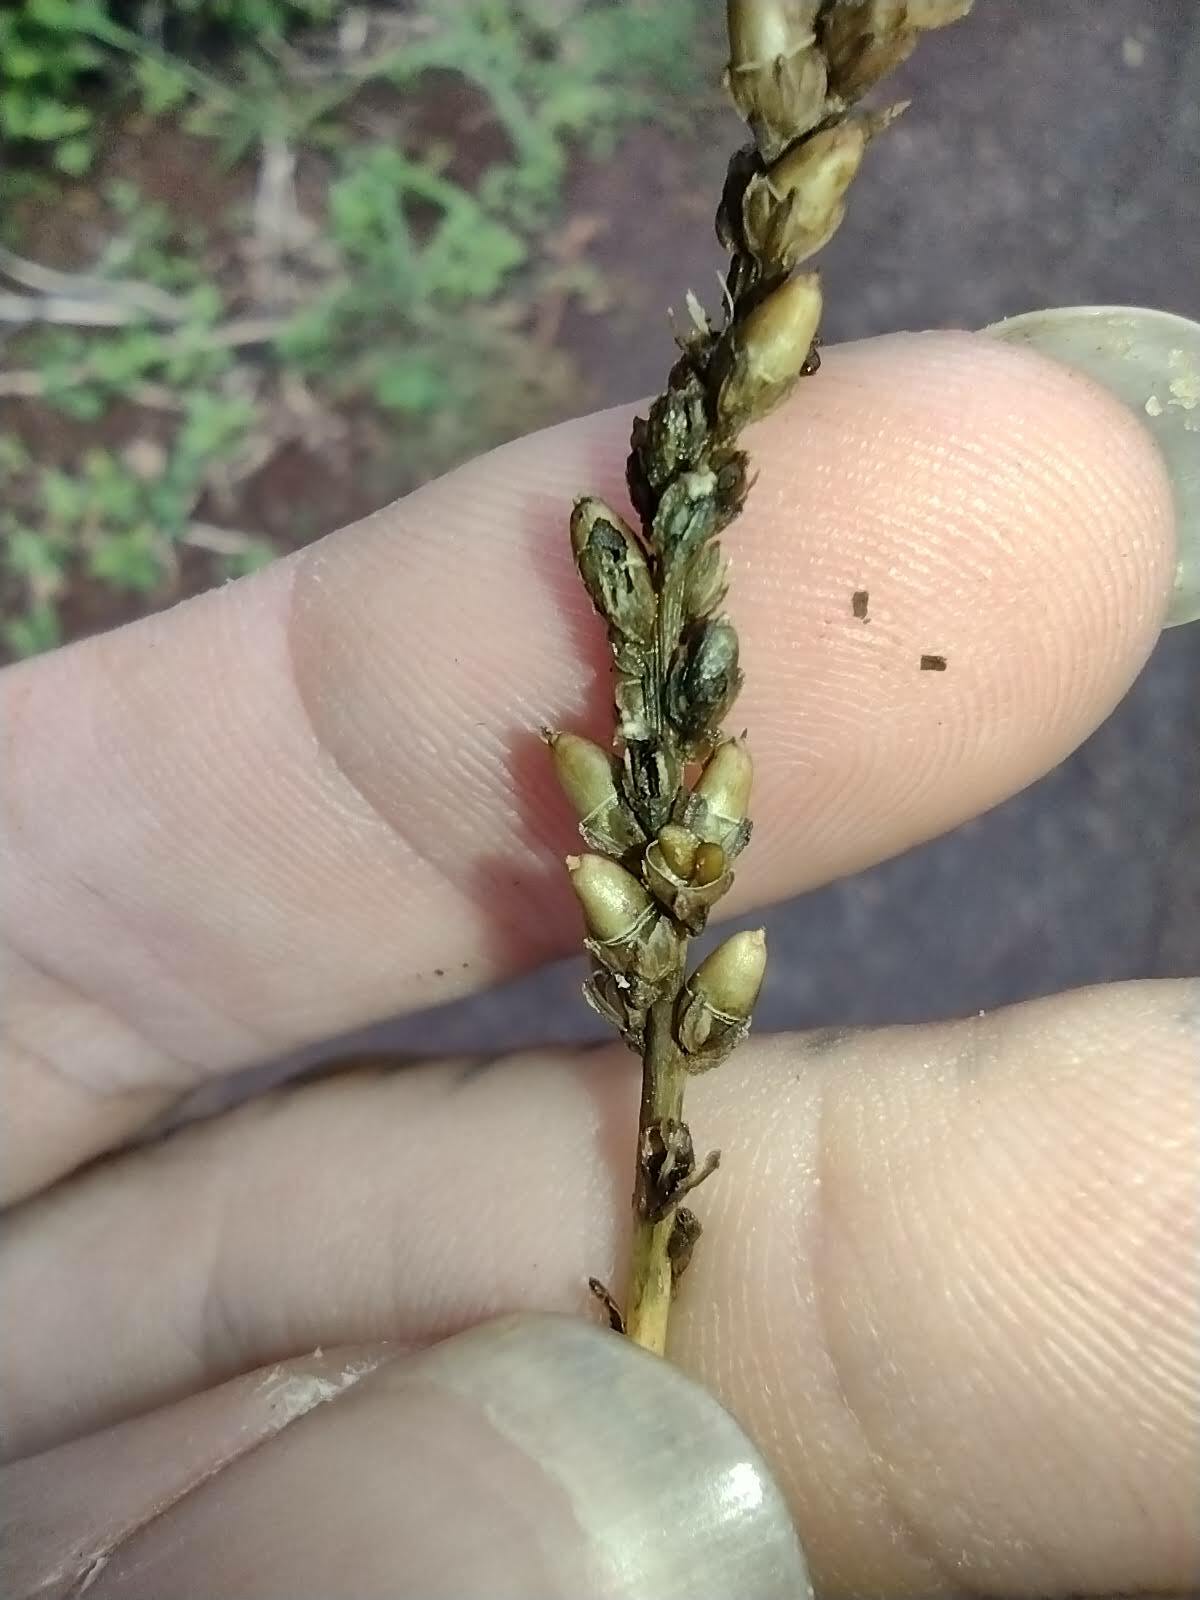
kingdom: Plantae
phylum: Tracheophyta
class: Magnoliopsida
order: Lamiales
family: Plantaginaceae
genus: Plantago
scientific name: Plantago major
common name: Common plantain
